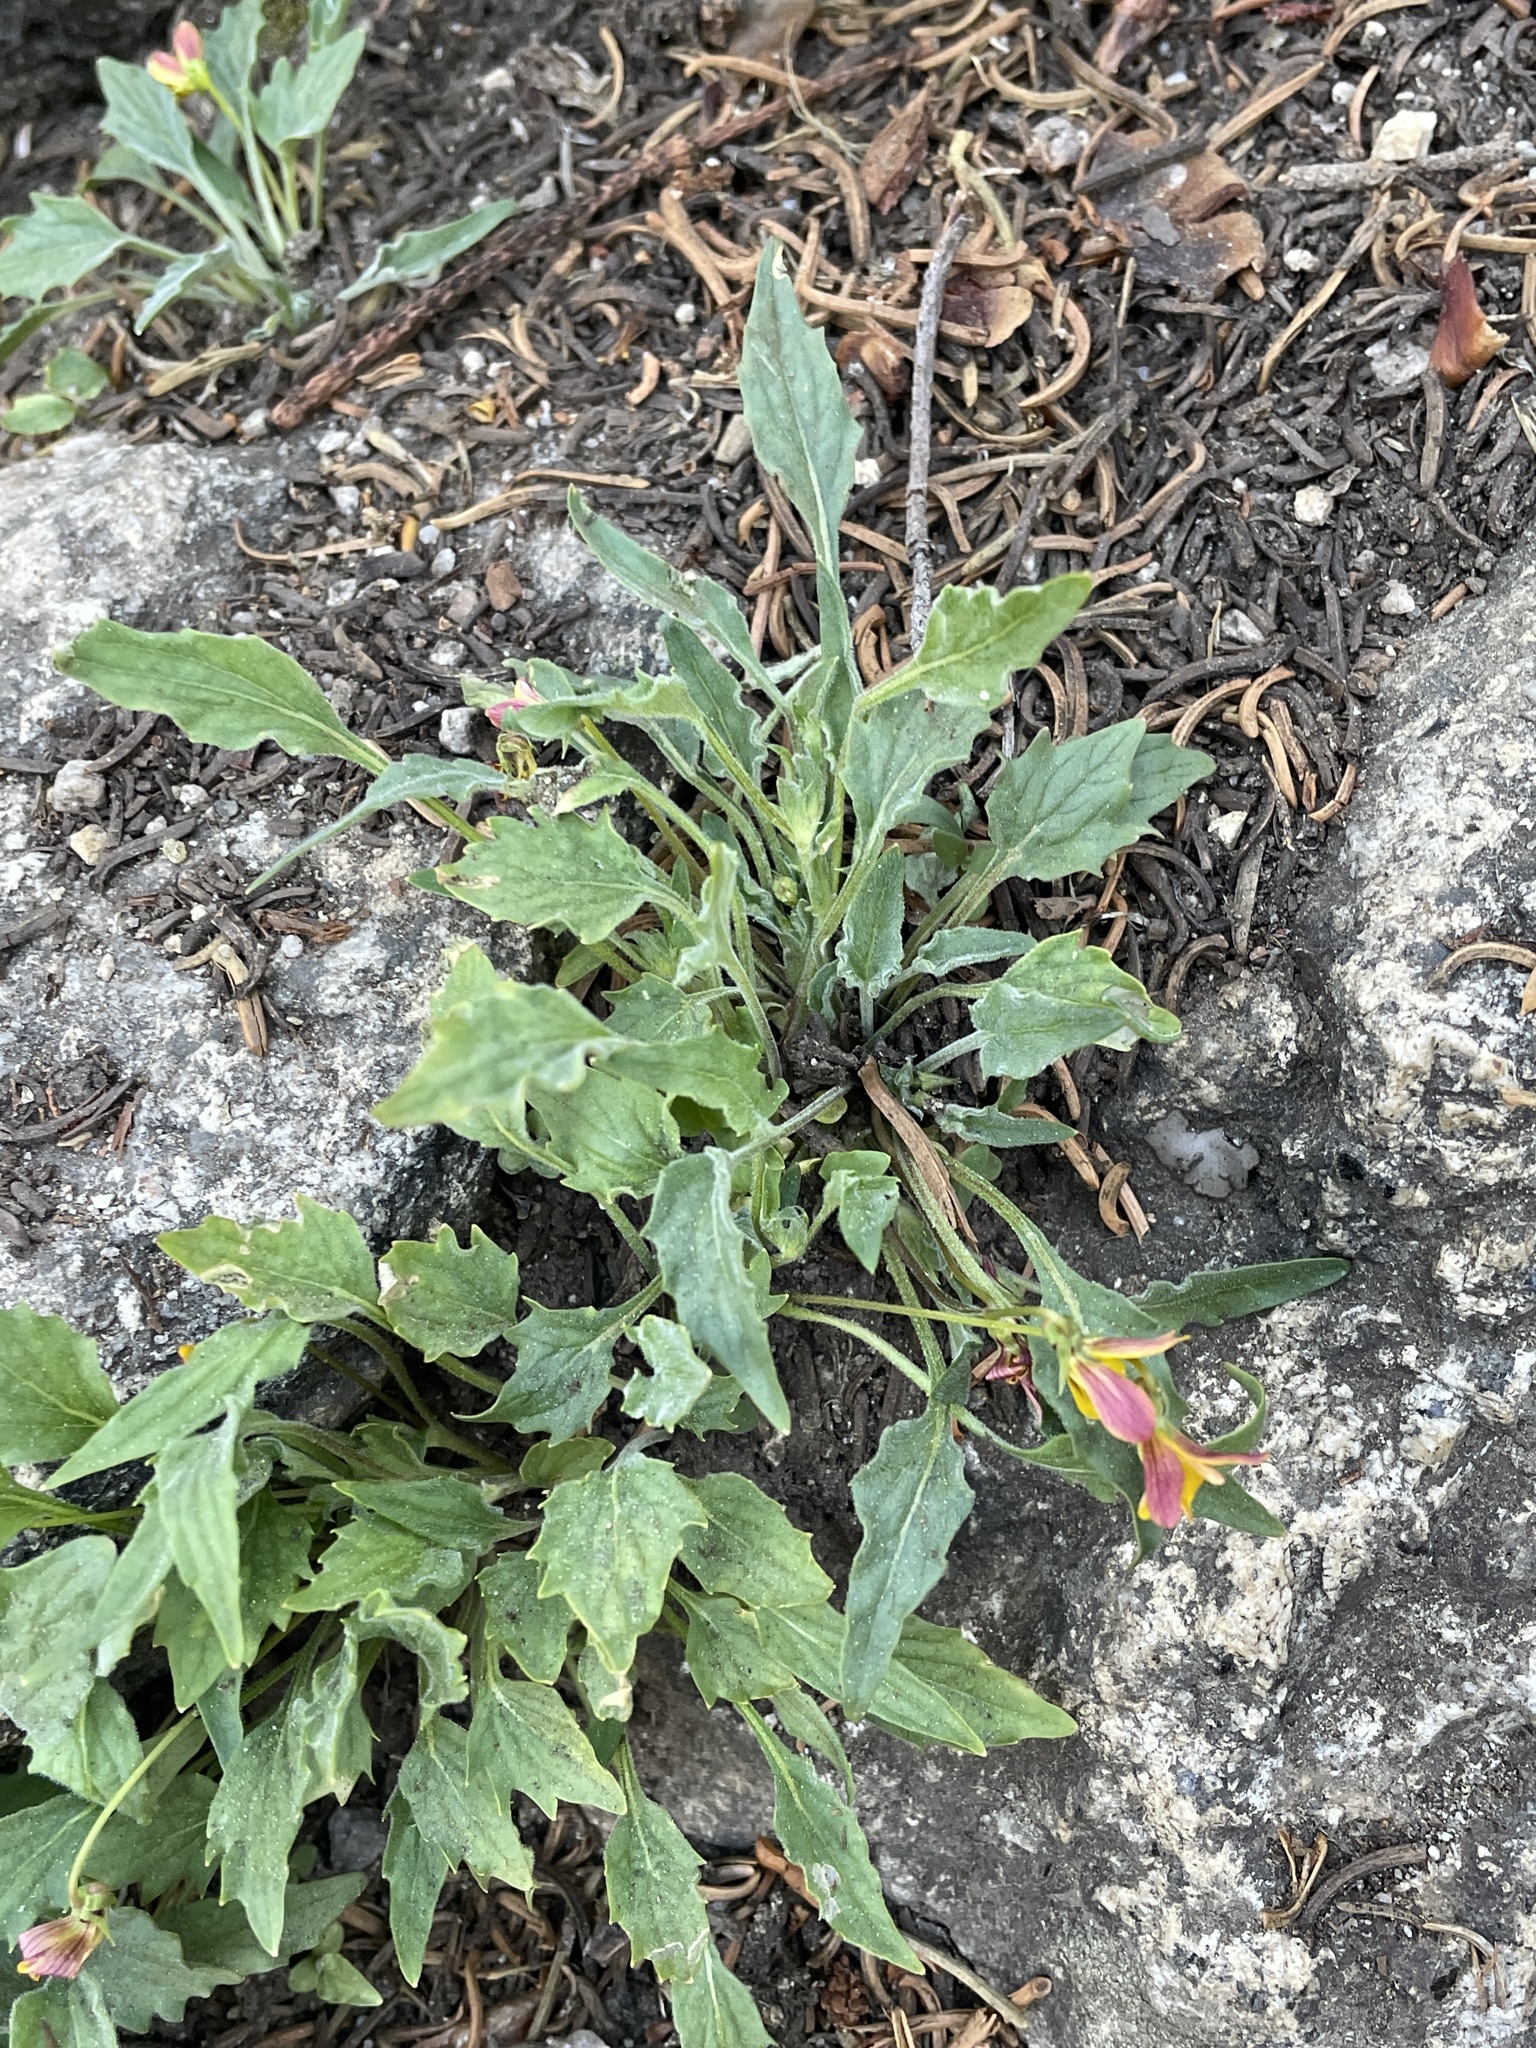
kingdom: Plantae
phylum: Tracheophyta
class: Magnoliopsida
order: Malpighiales
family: Violaceae
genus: Viola
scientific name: Viola pinetorum
